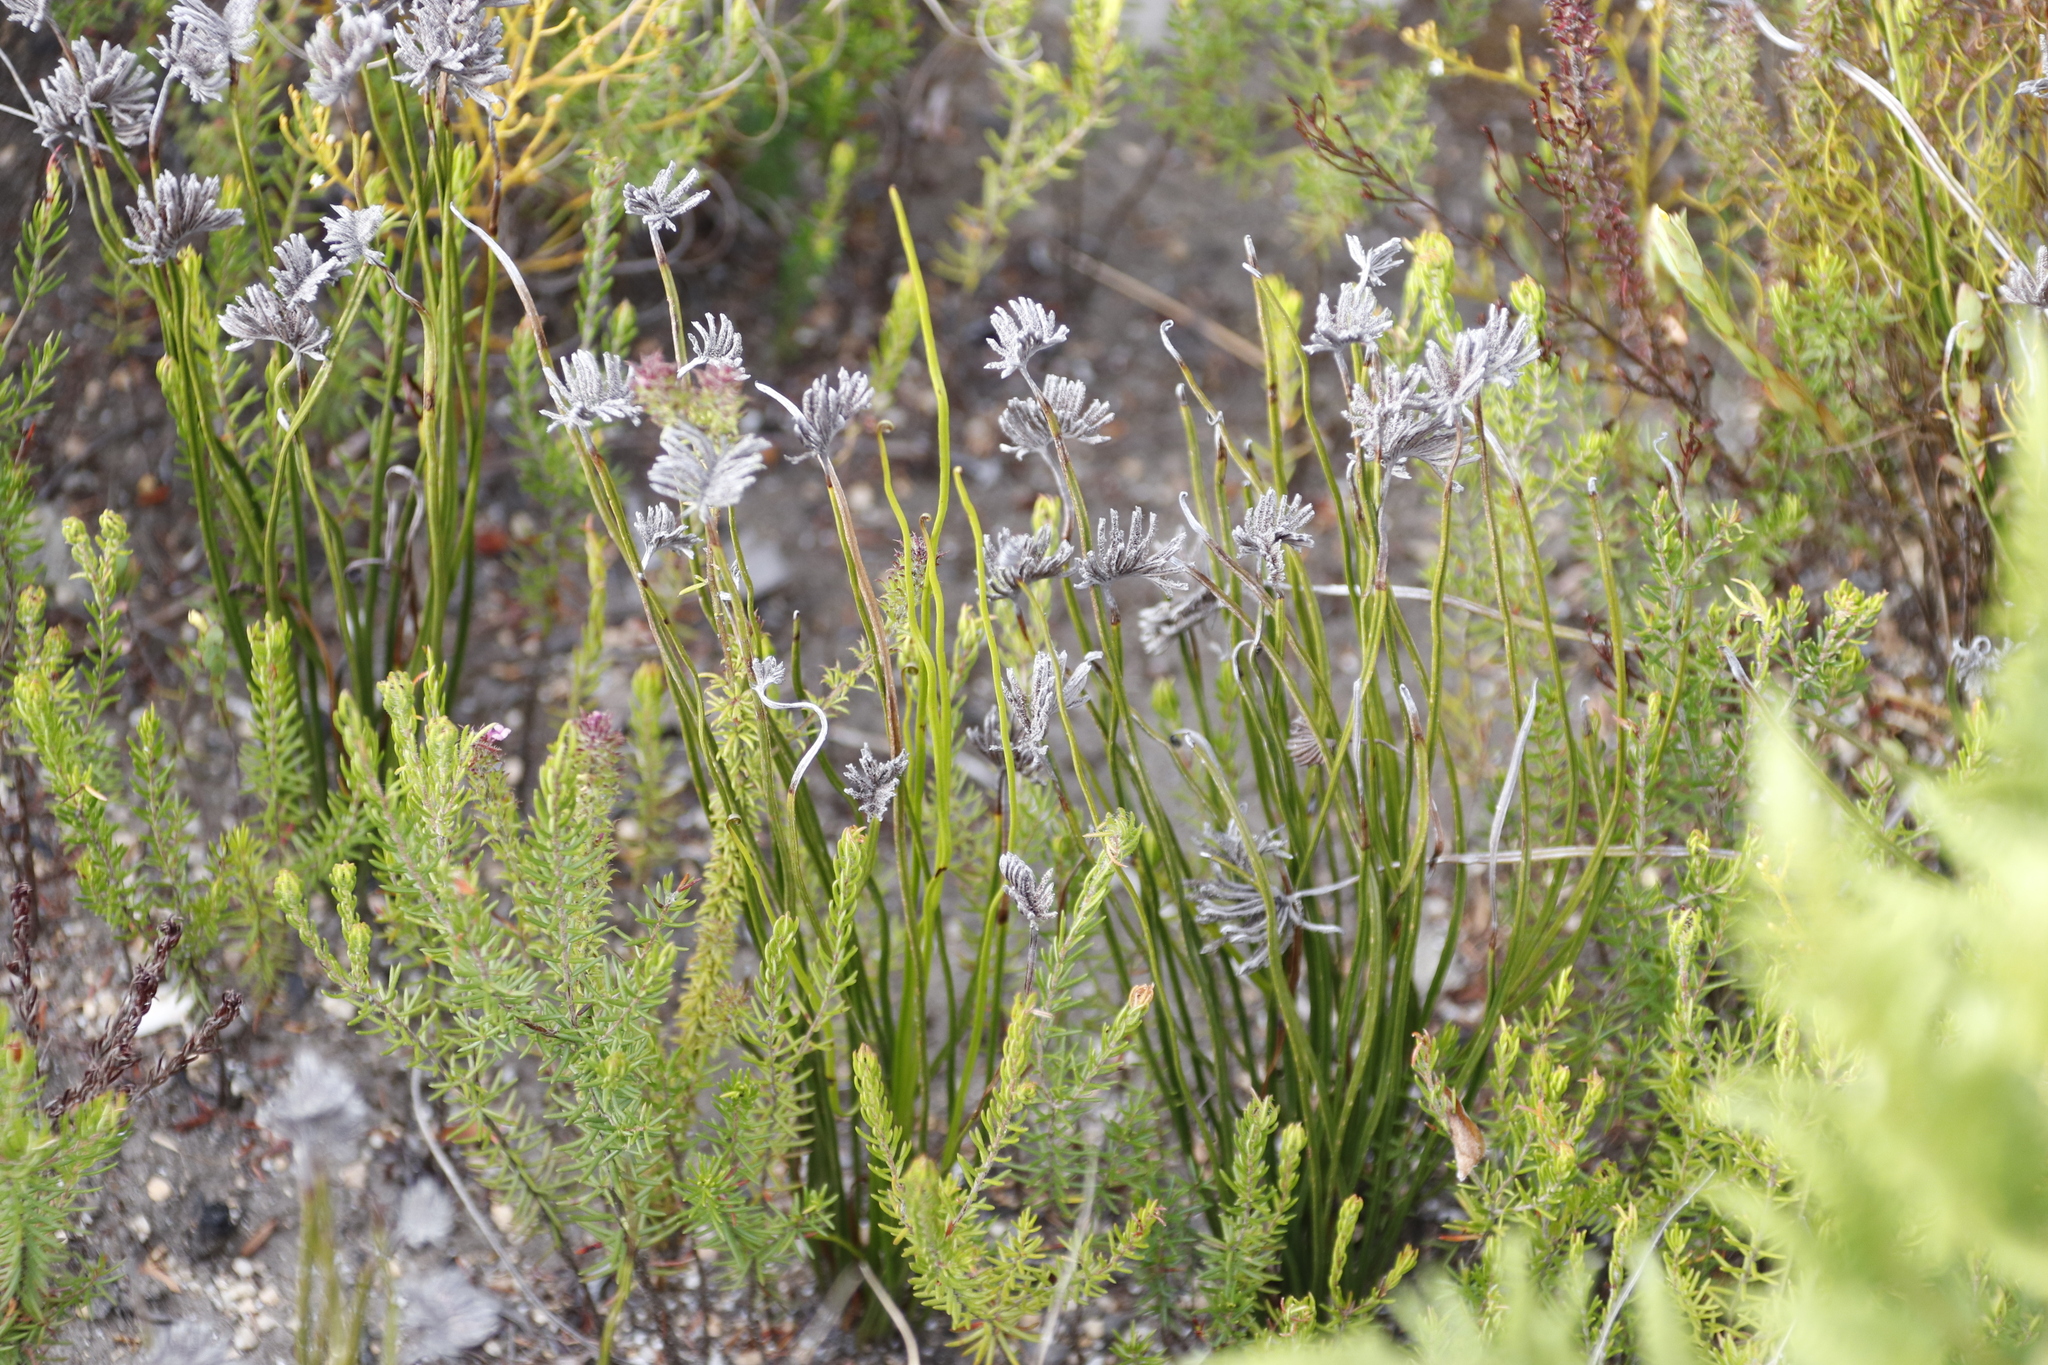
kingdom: Plantae
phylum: Tracheophyta
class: Polypodiopsida
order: Schizaeales
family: Schizaeaceae
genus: Schizaea
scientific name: Schizaea pectinata
